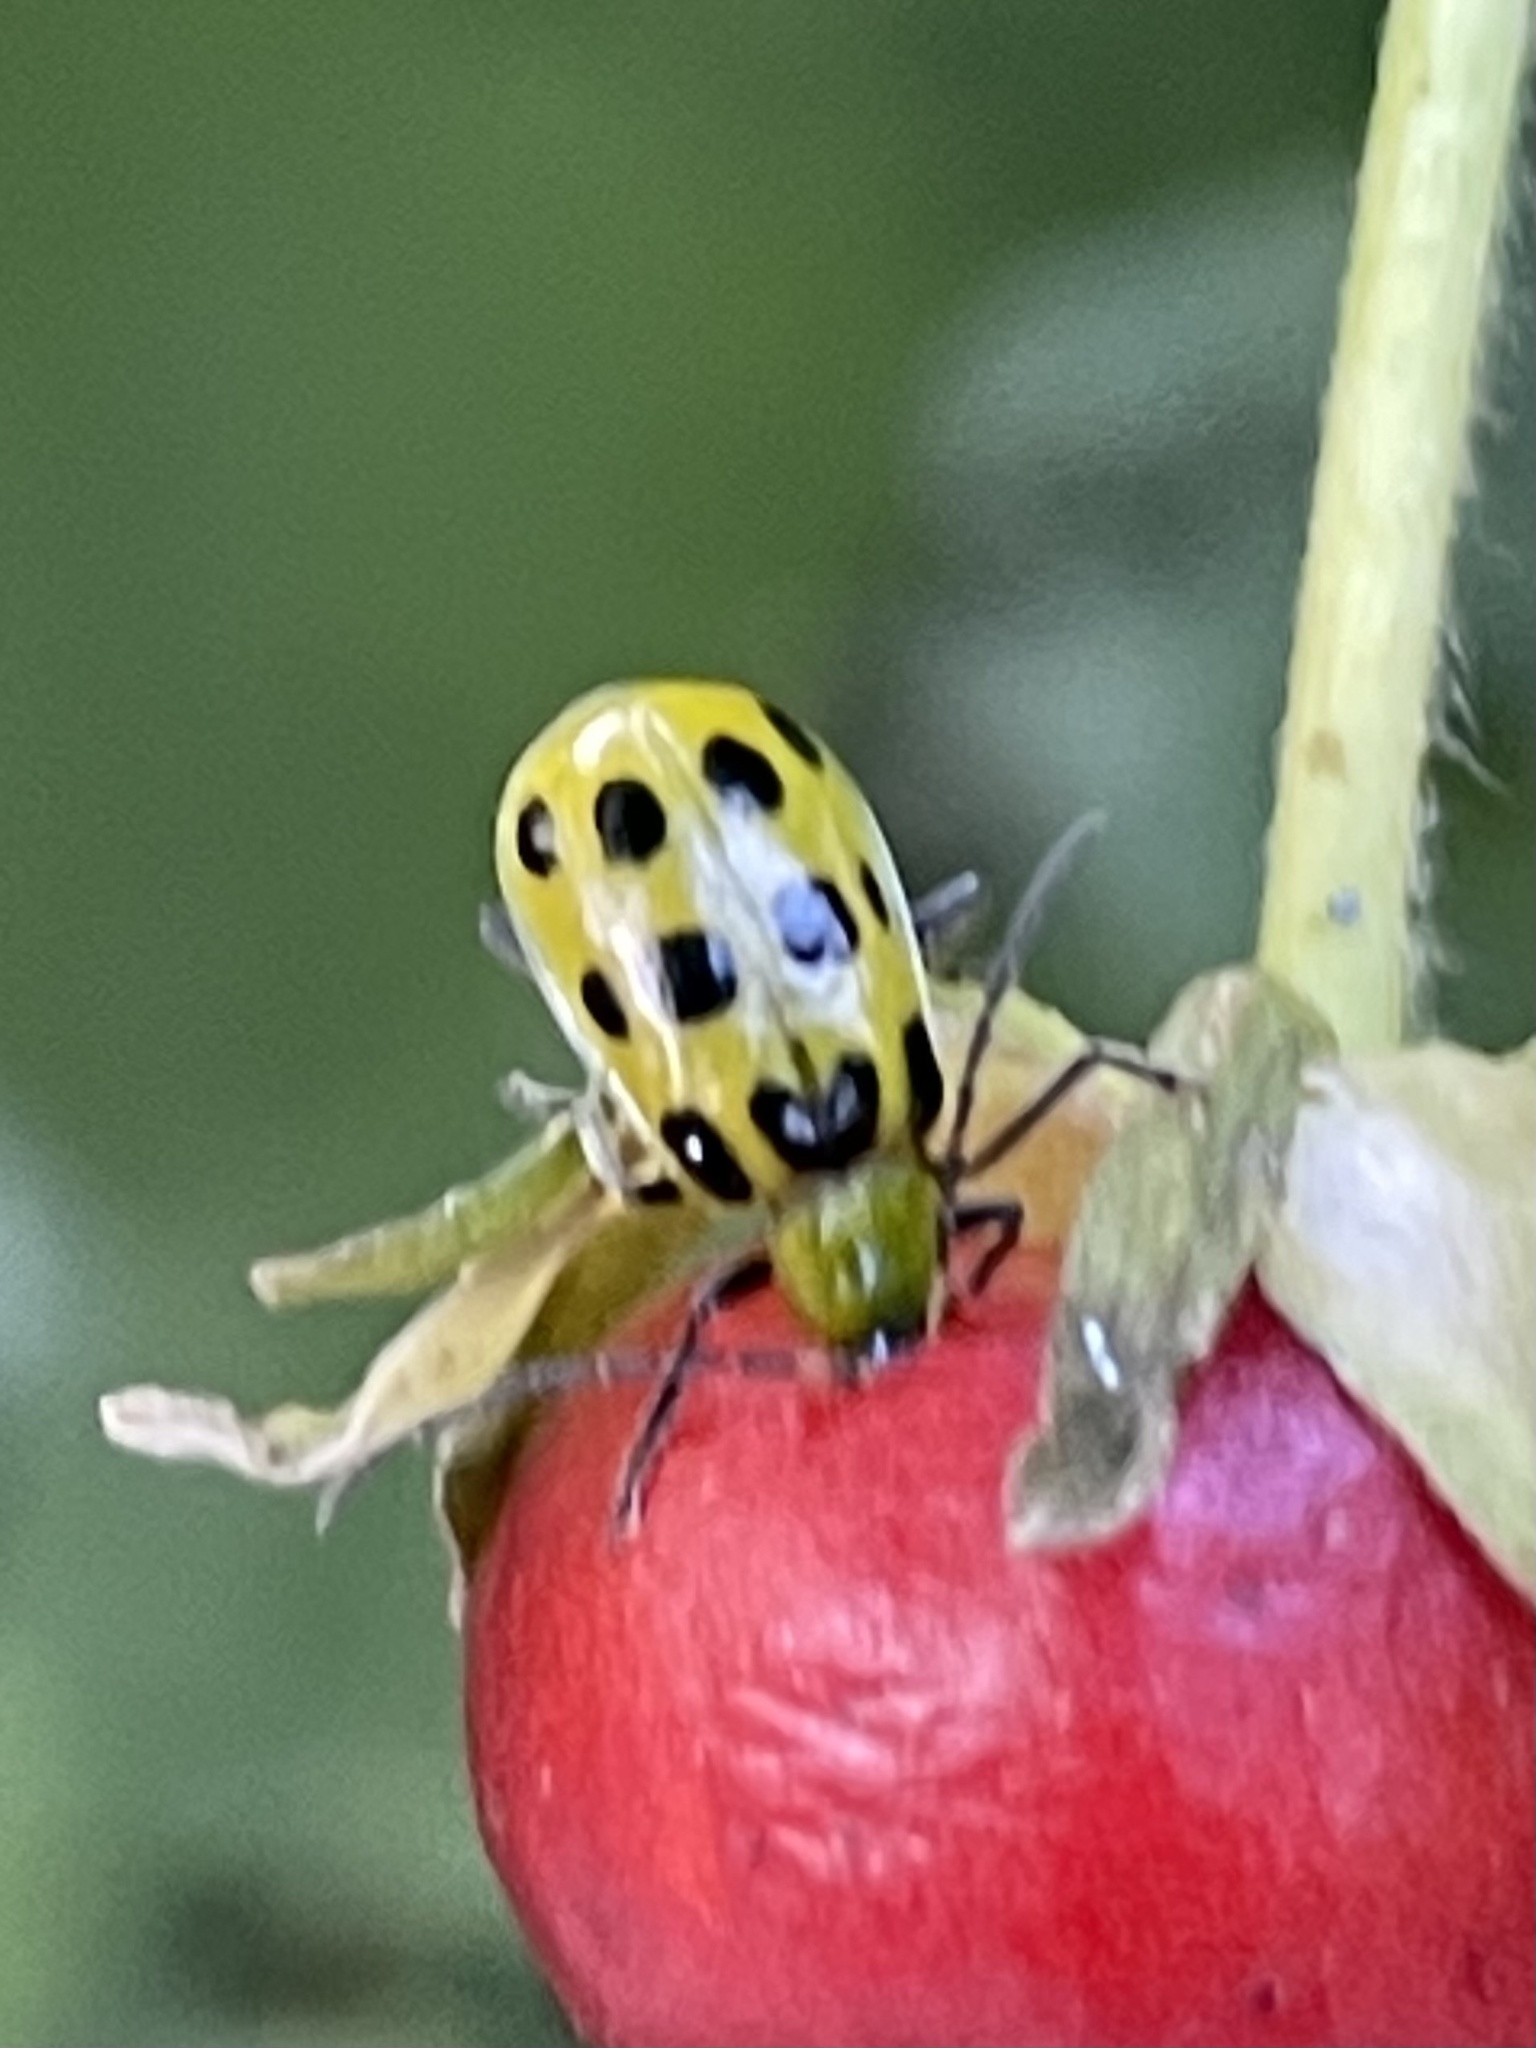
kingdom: Animalia
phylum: Arthropoda
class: Insecta
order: Coleoptera
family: Chrysomelidae
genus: Diabrotica
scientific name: Diabrotica undecimpunctata
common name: Spotted cucumber beetle
